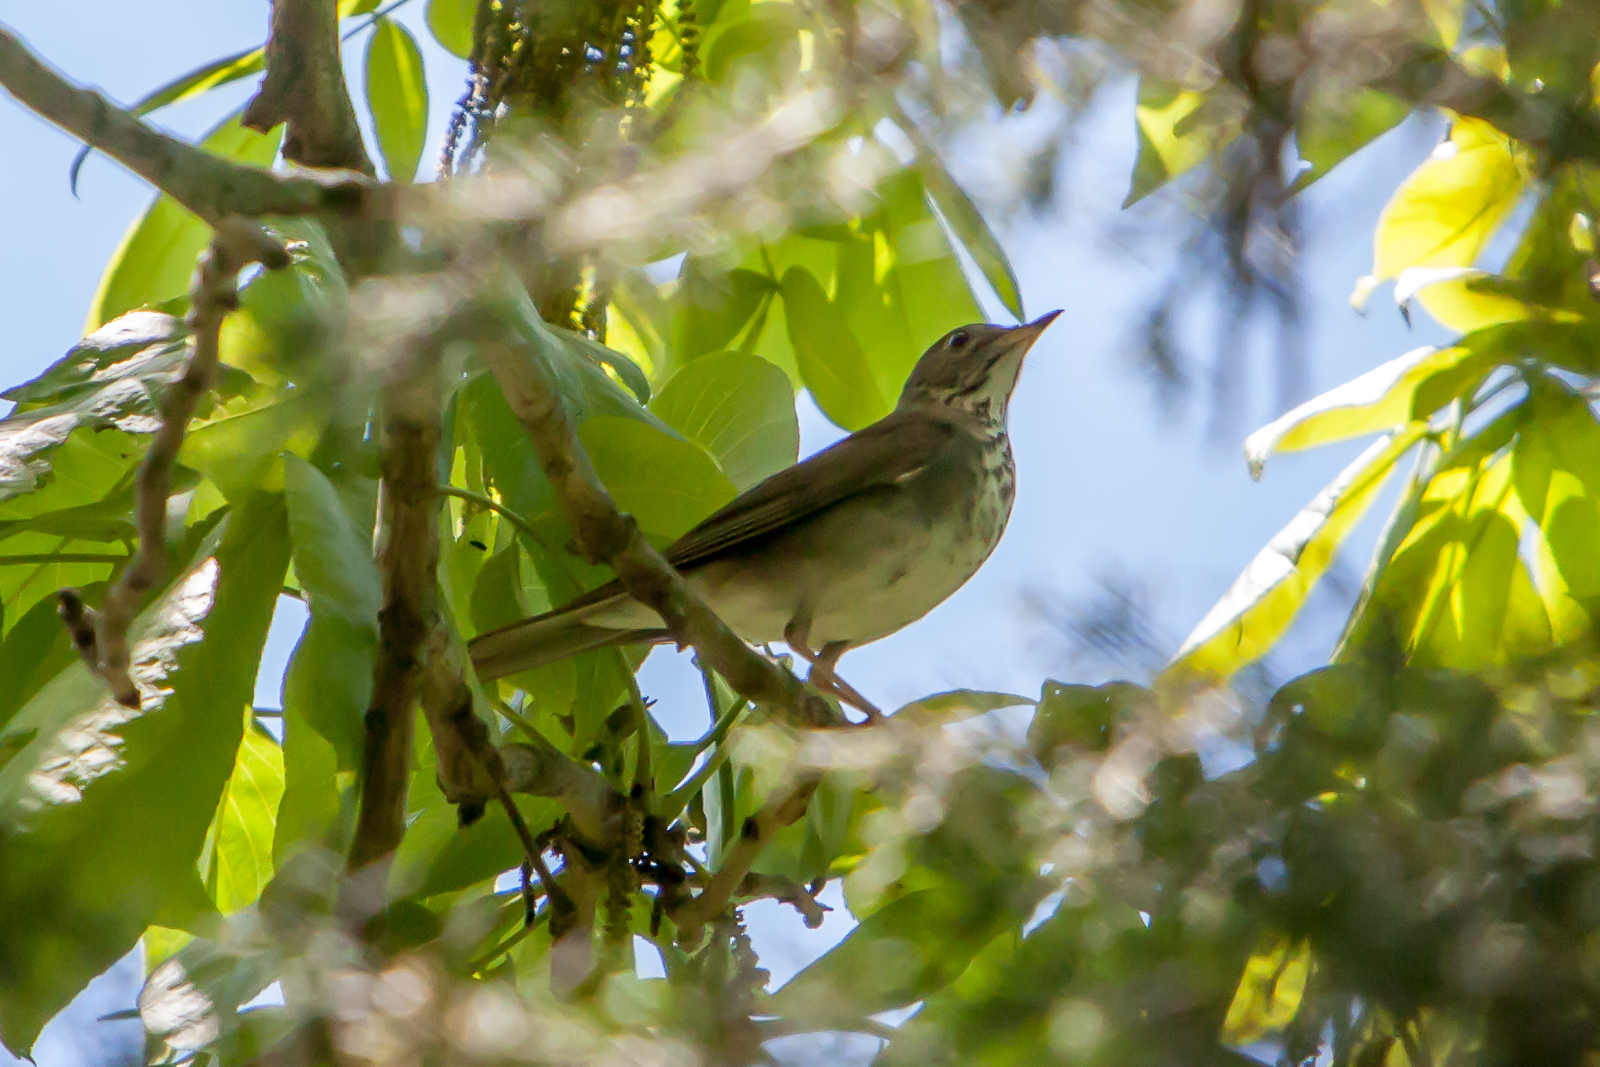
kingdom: Animalia
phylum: Chordata
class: Aves
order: Passeriformes
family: Turdidae
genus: Catharus
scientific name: Catharus ustulatus
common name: Swainson's thrush
